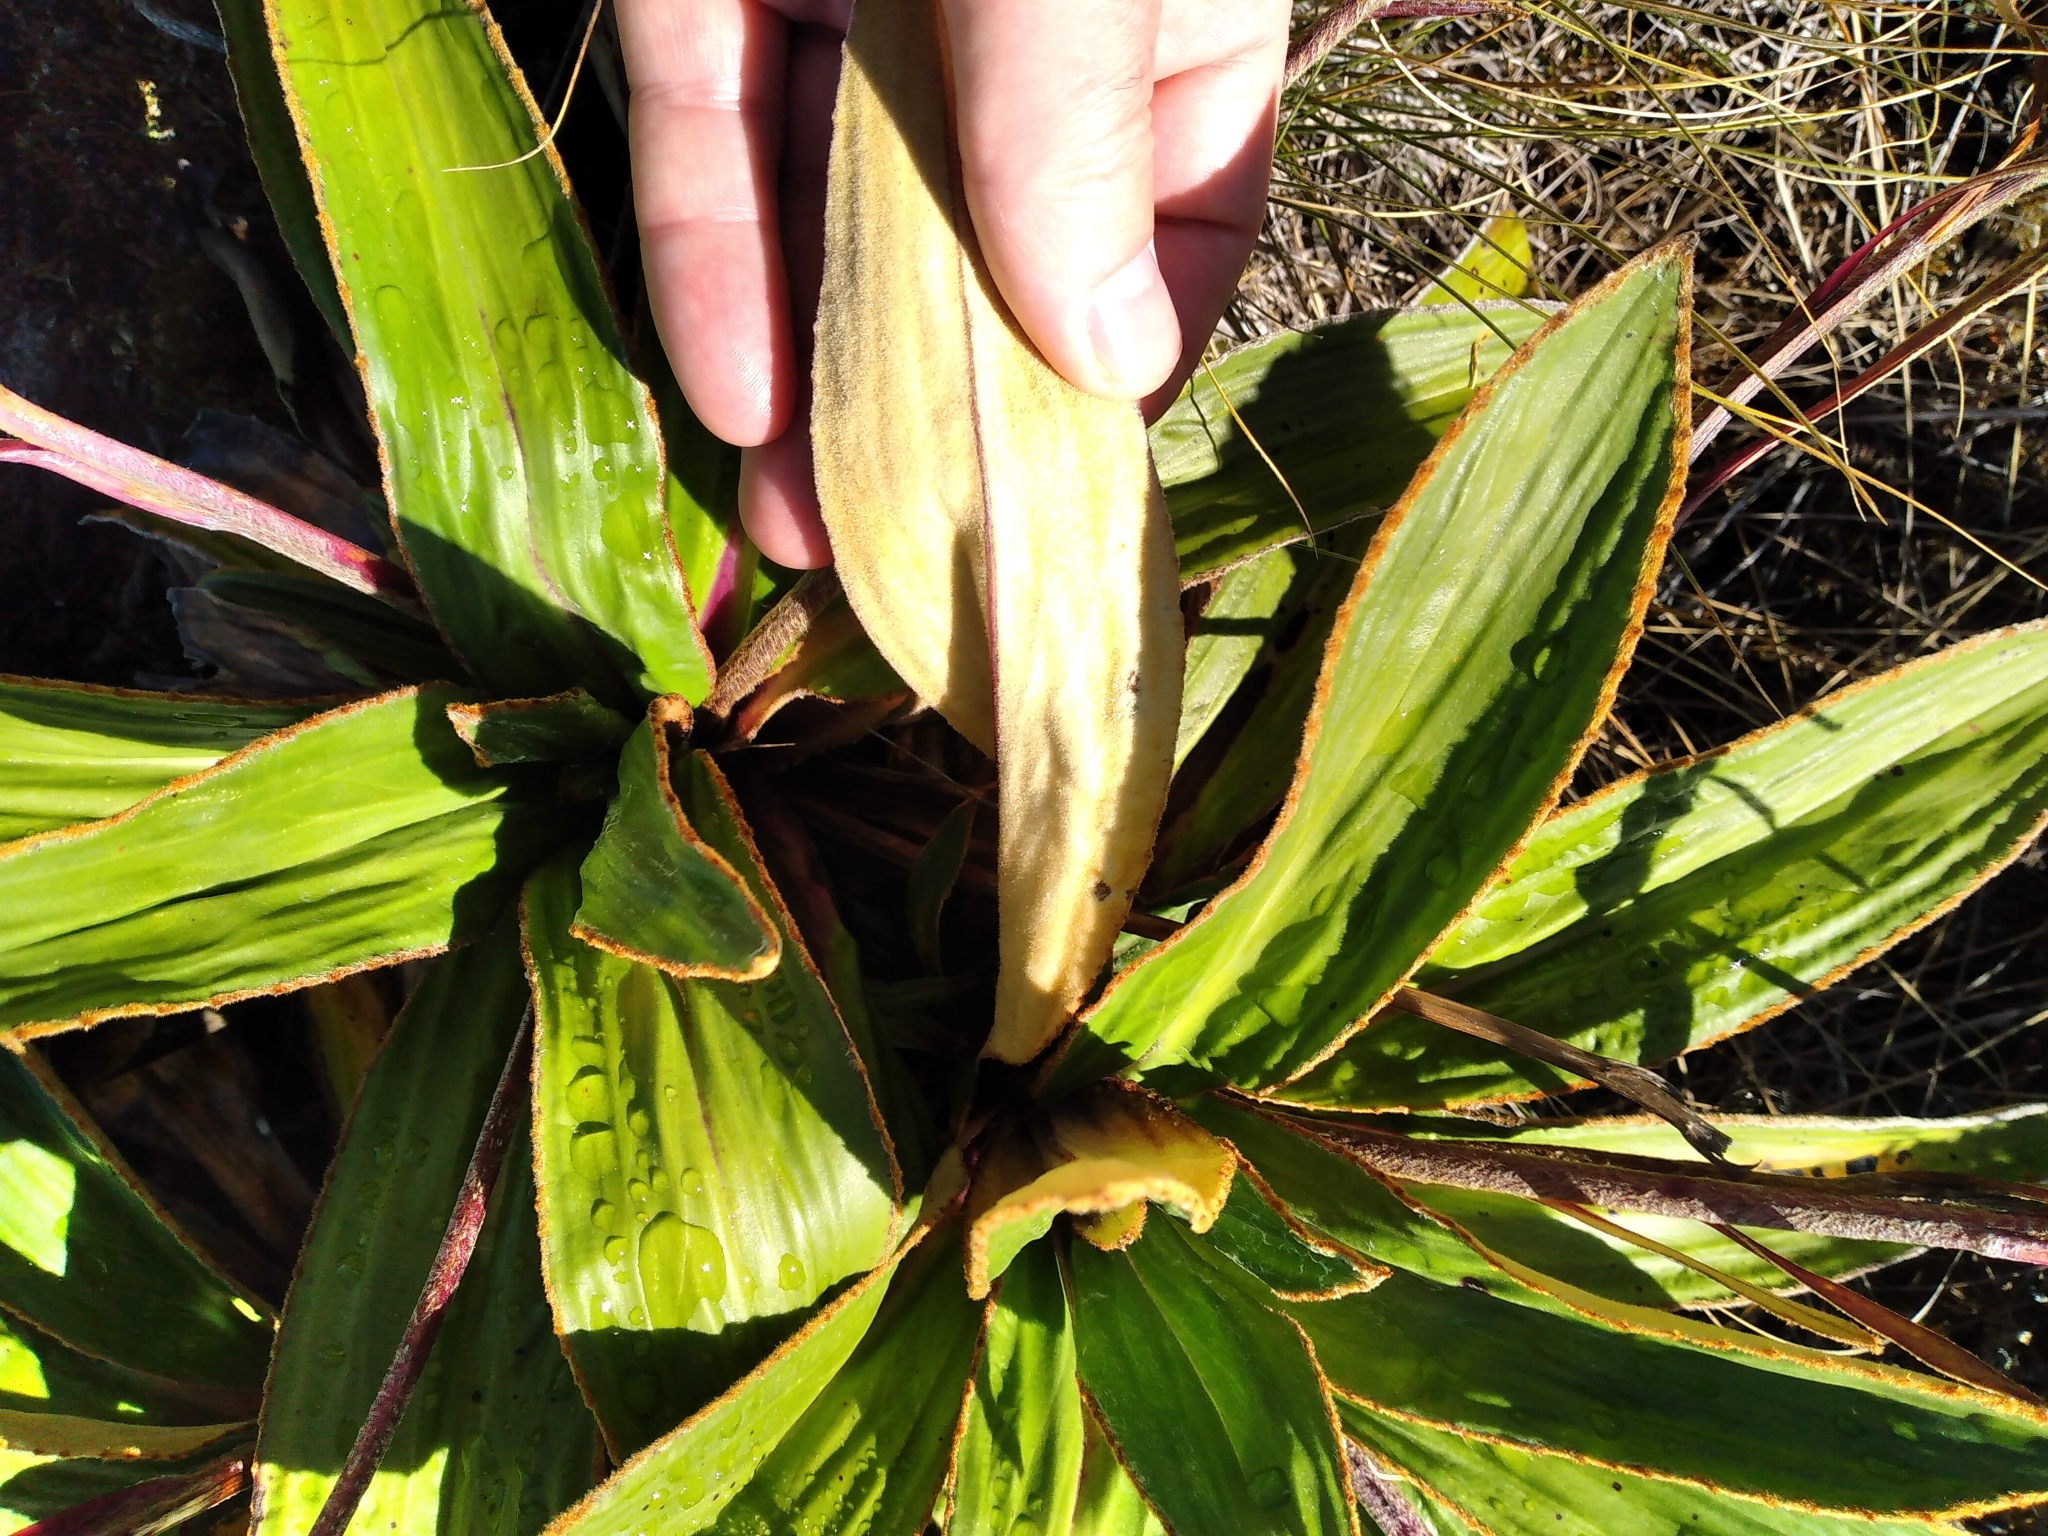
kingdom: Plantae
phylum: Tracheophyta
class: Magnoliopsida
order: Asterales
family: Asteraceae
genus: Celmisia
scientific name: Celmisia verbascifolia
